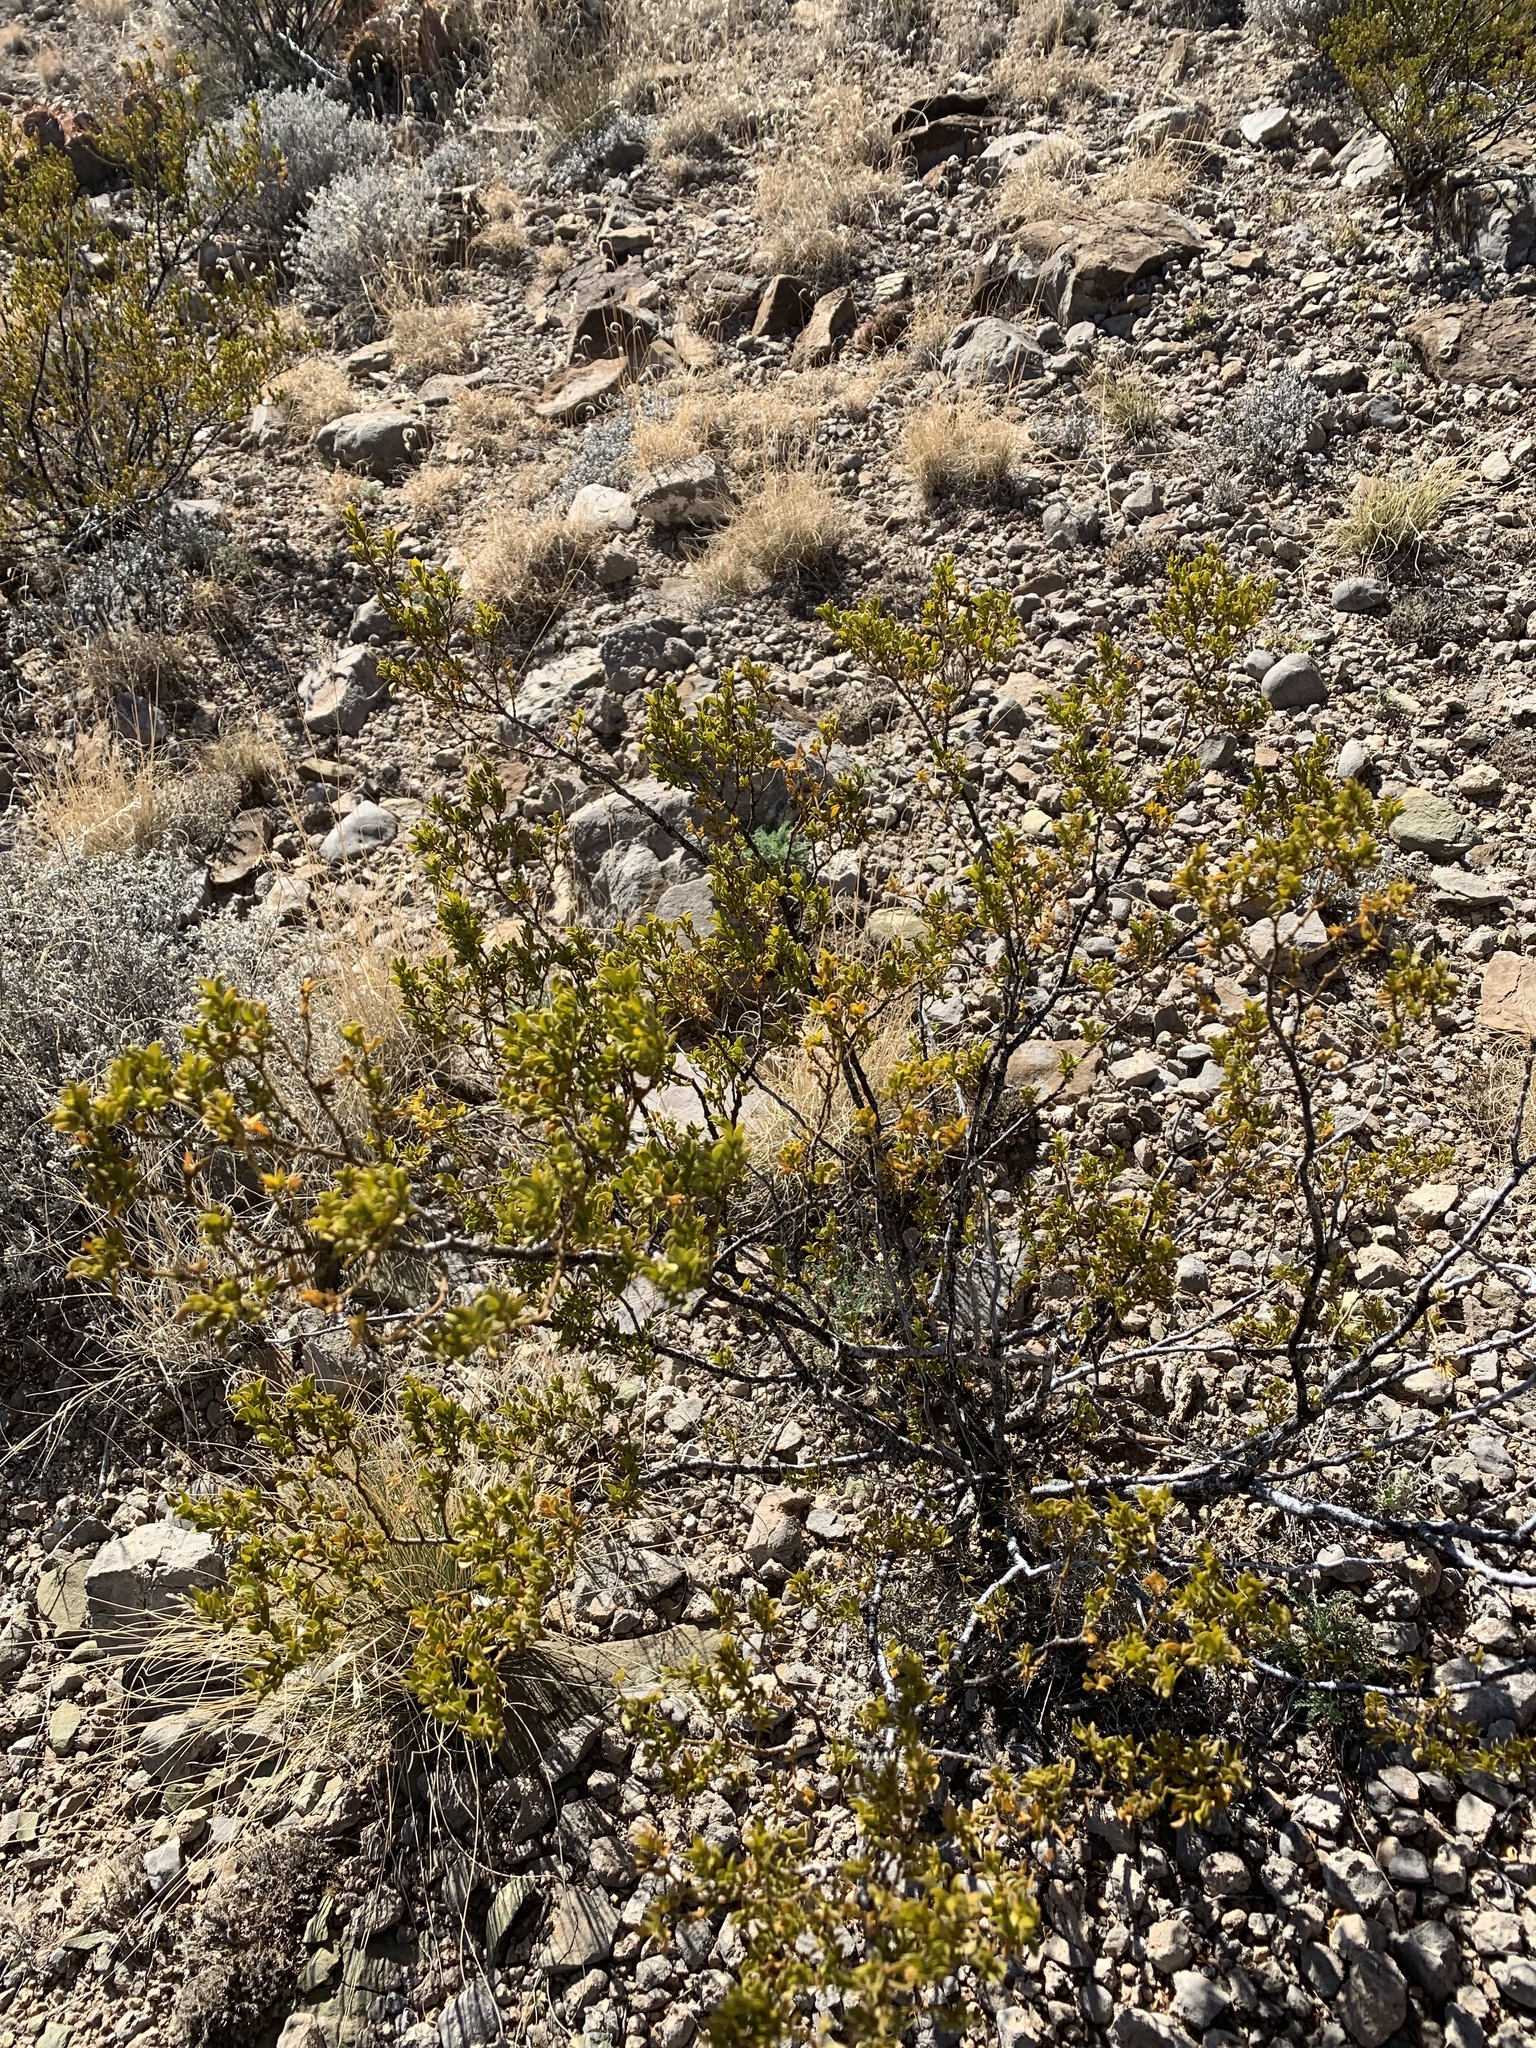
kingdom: Plantae
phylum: Tracheophyta
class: Magnoliopsida
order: Zygophyllales
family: Zygophyllaceae
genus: Larrea
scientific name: Larrea tridentata
